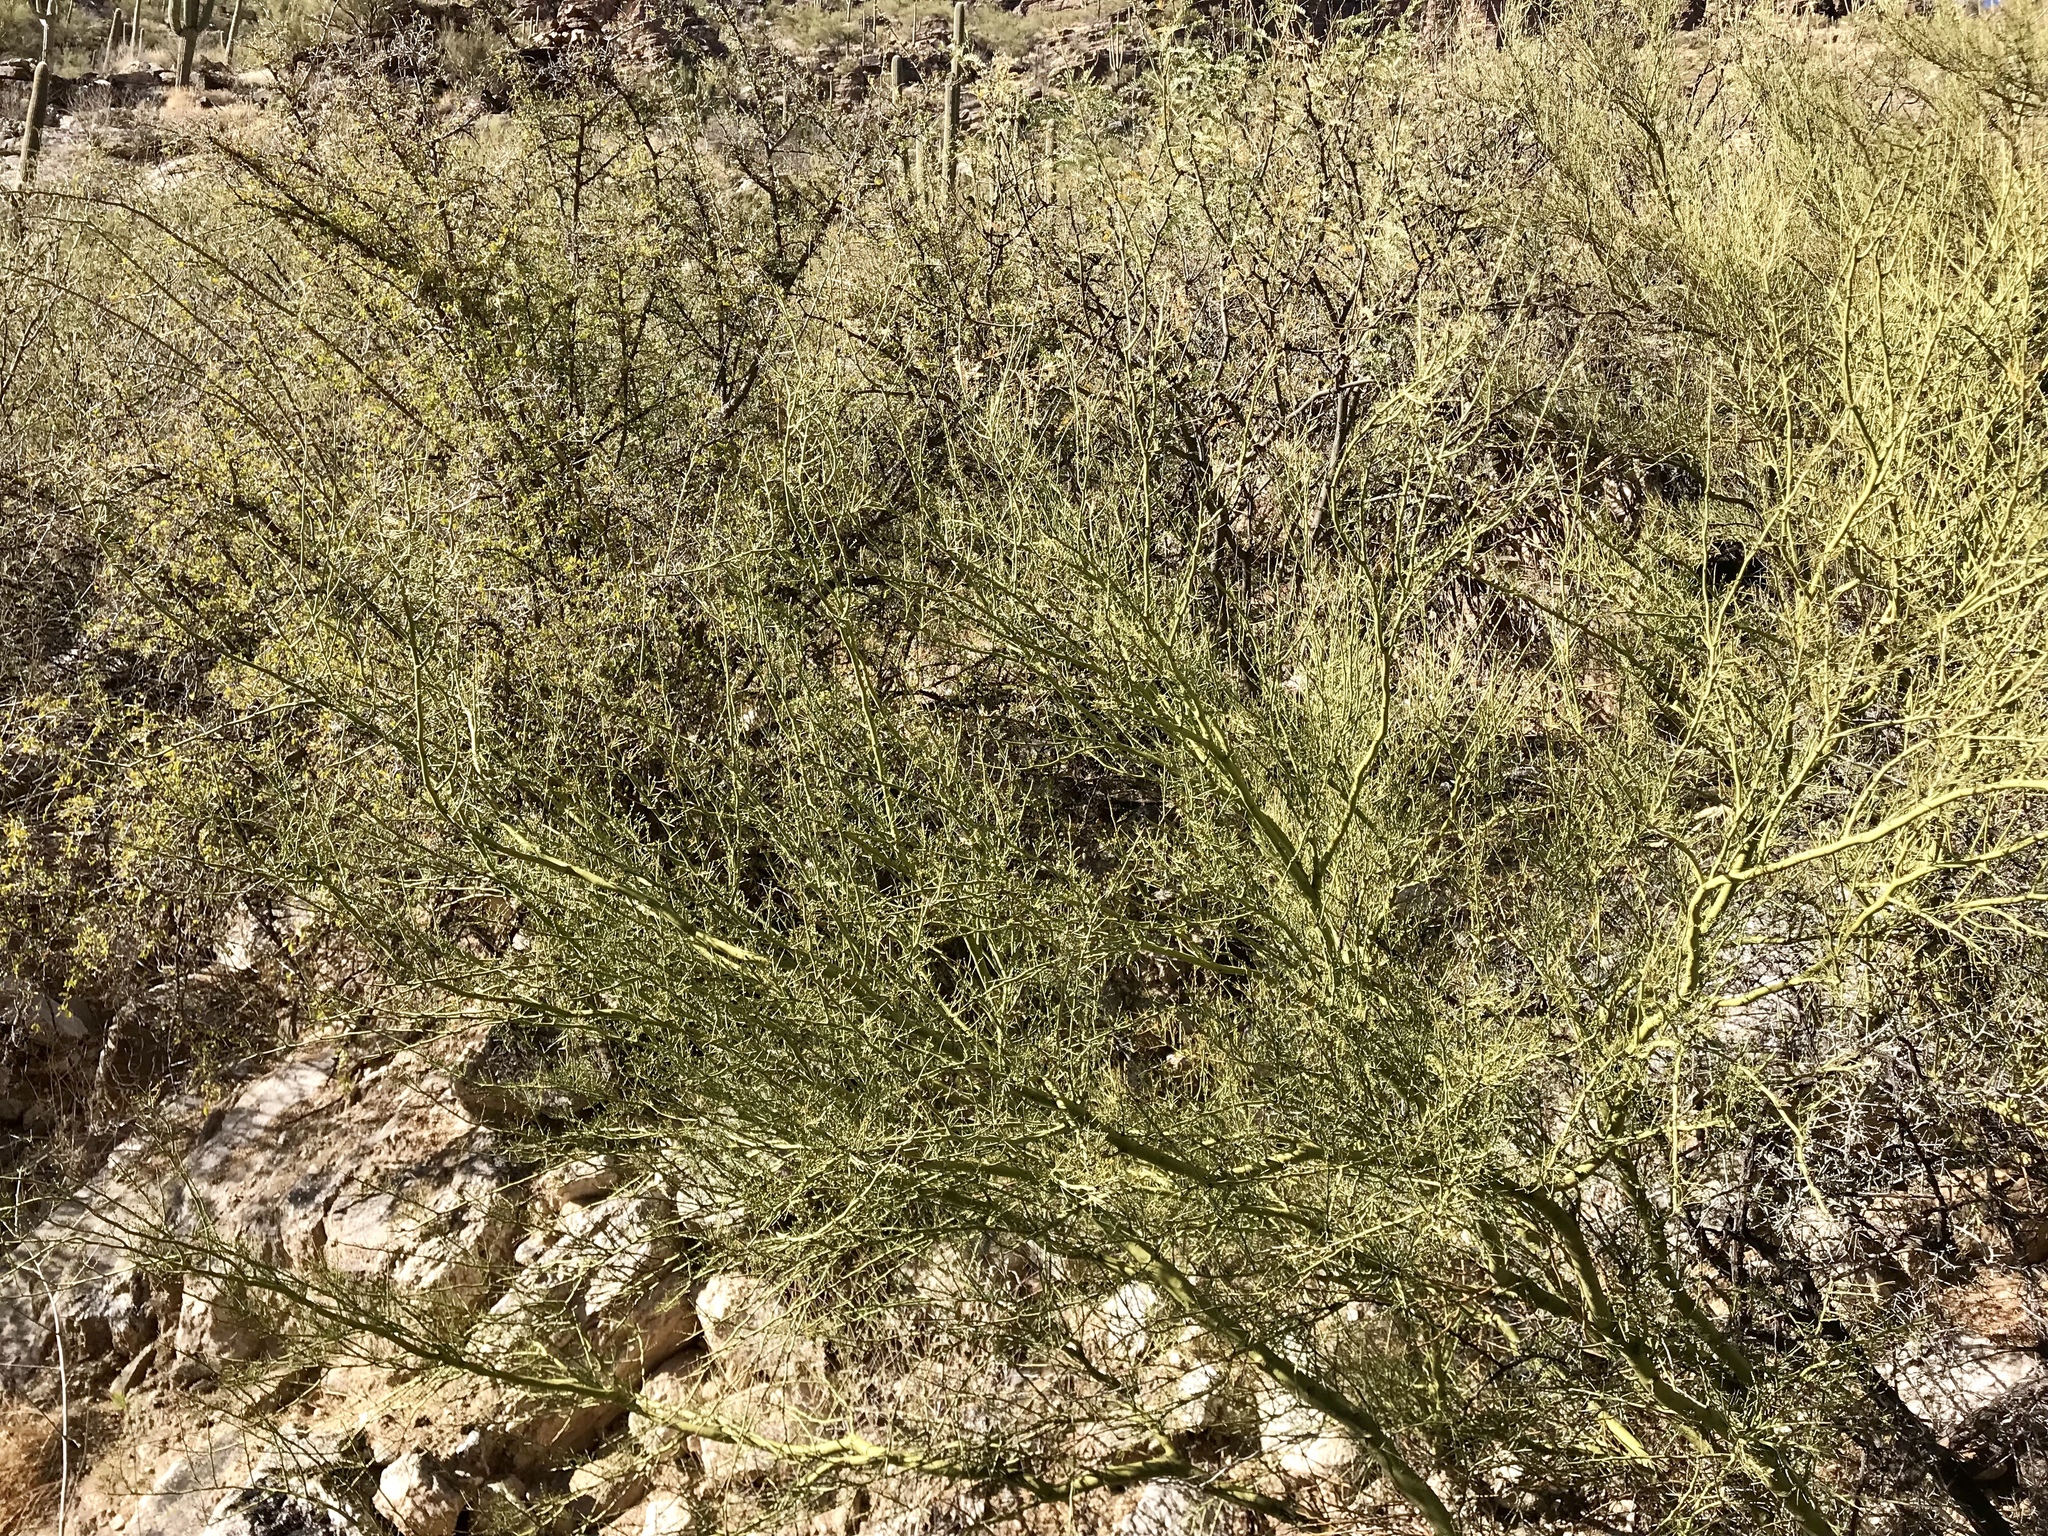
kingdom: Plantae
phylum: Tracheophyta
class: Magnoliopsida
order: Fabales
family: Fabaceae
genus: Parkinsonia
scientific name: Parkinsonia microphylla
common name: Yellow paloverde
